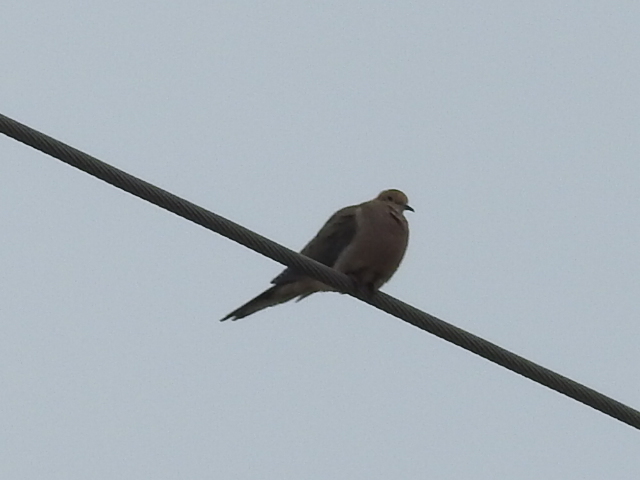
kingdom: Animalia
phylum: Chordata
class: Aves
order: Columbiformes
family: Columbidae
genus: Zenaida
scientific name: Zenaida macroura
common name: Mourning dove
